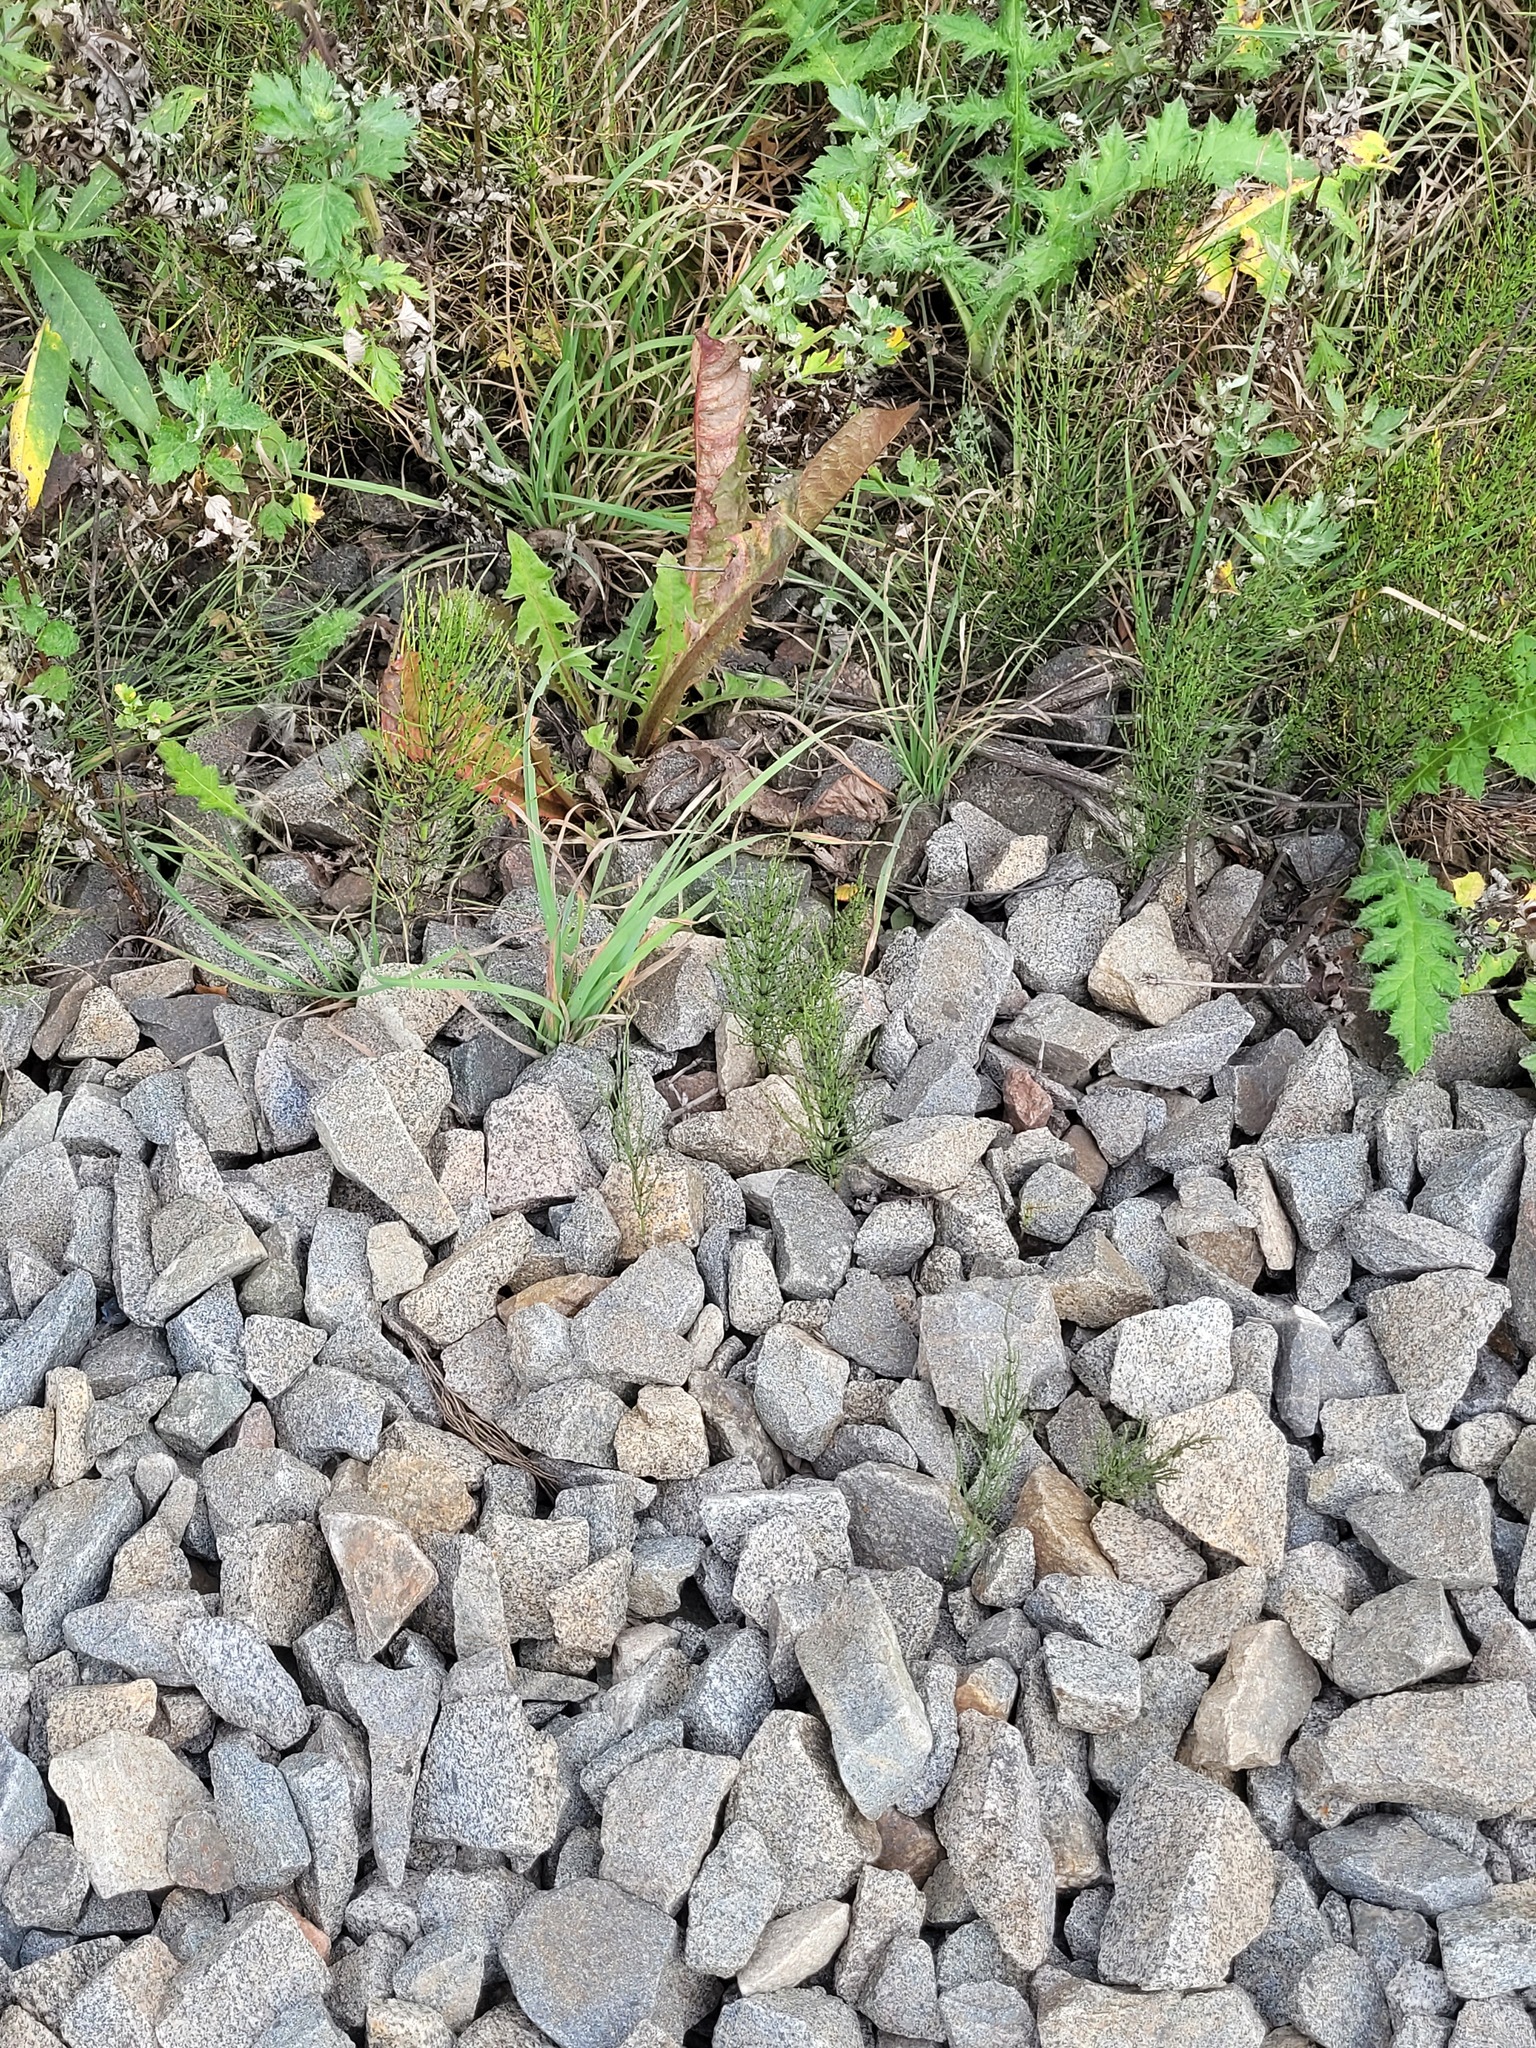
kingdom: Plantae
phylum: Tracheophyta
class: Polypodiopsida
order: Equisetales
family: Equisetaceae
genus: Equisetum
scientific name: Equisetum arvense
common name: Field horsetail
